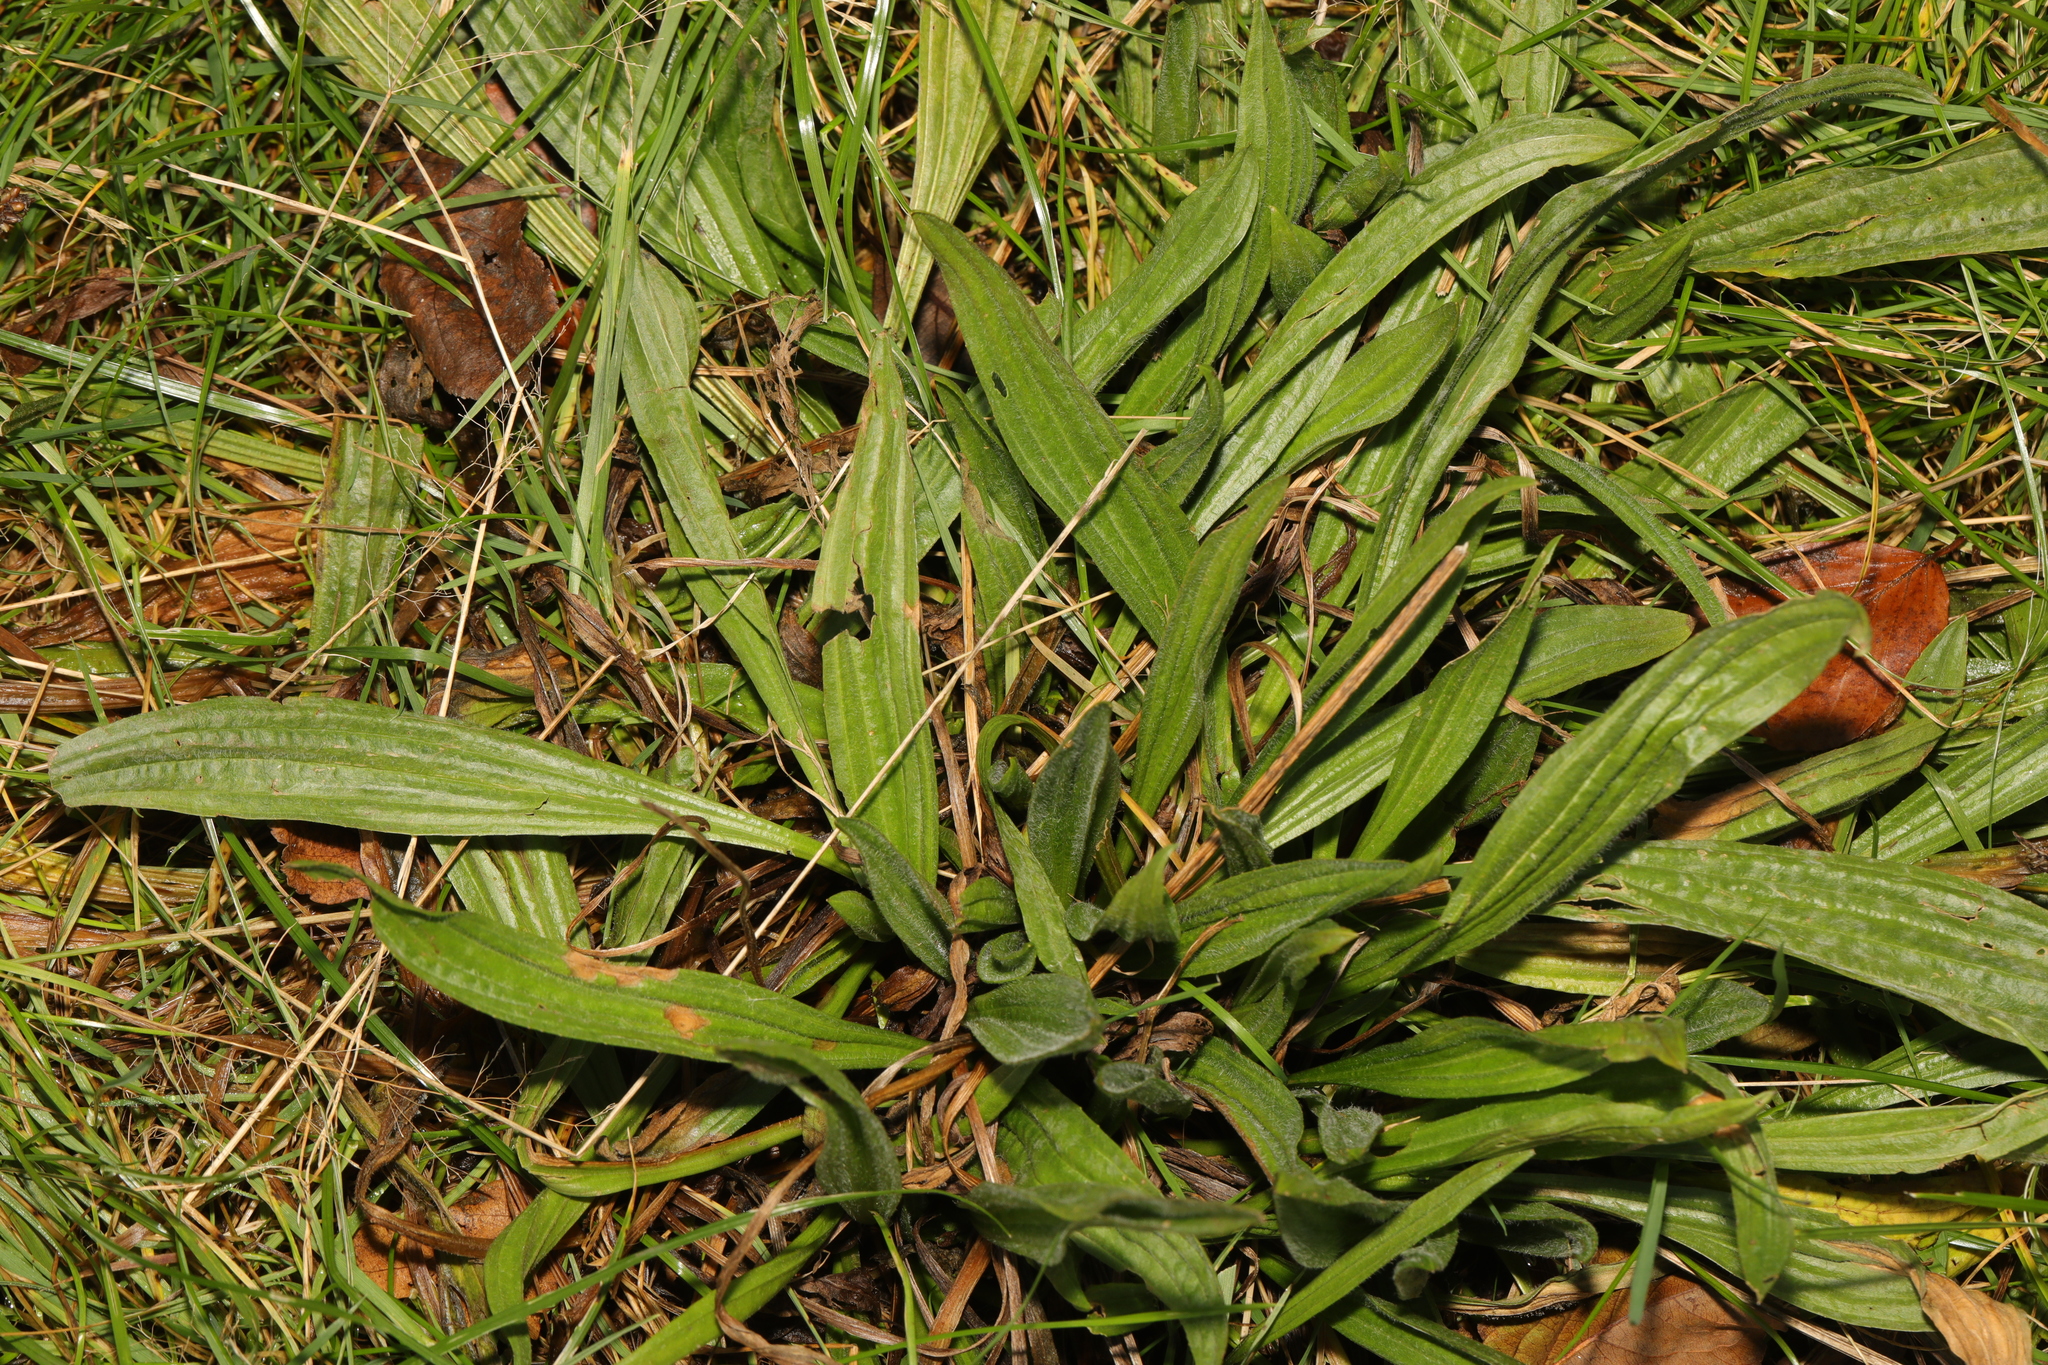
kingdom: Plantae
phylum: Tracheophyta
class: Magnoliopsida
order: Lamiales
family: Plantaginaceae
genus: Plantago
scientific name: Plantago lanceolata
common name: Ribwort plantain
